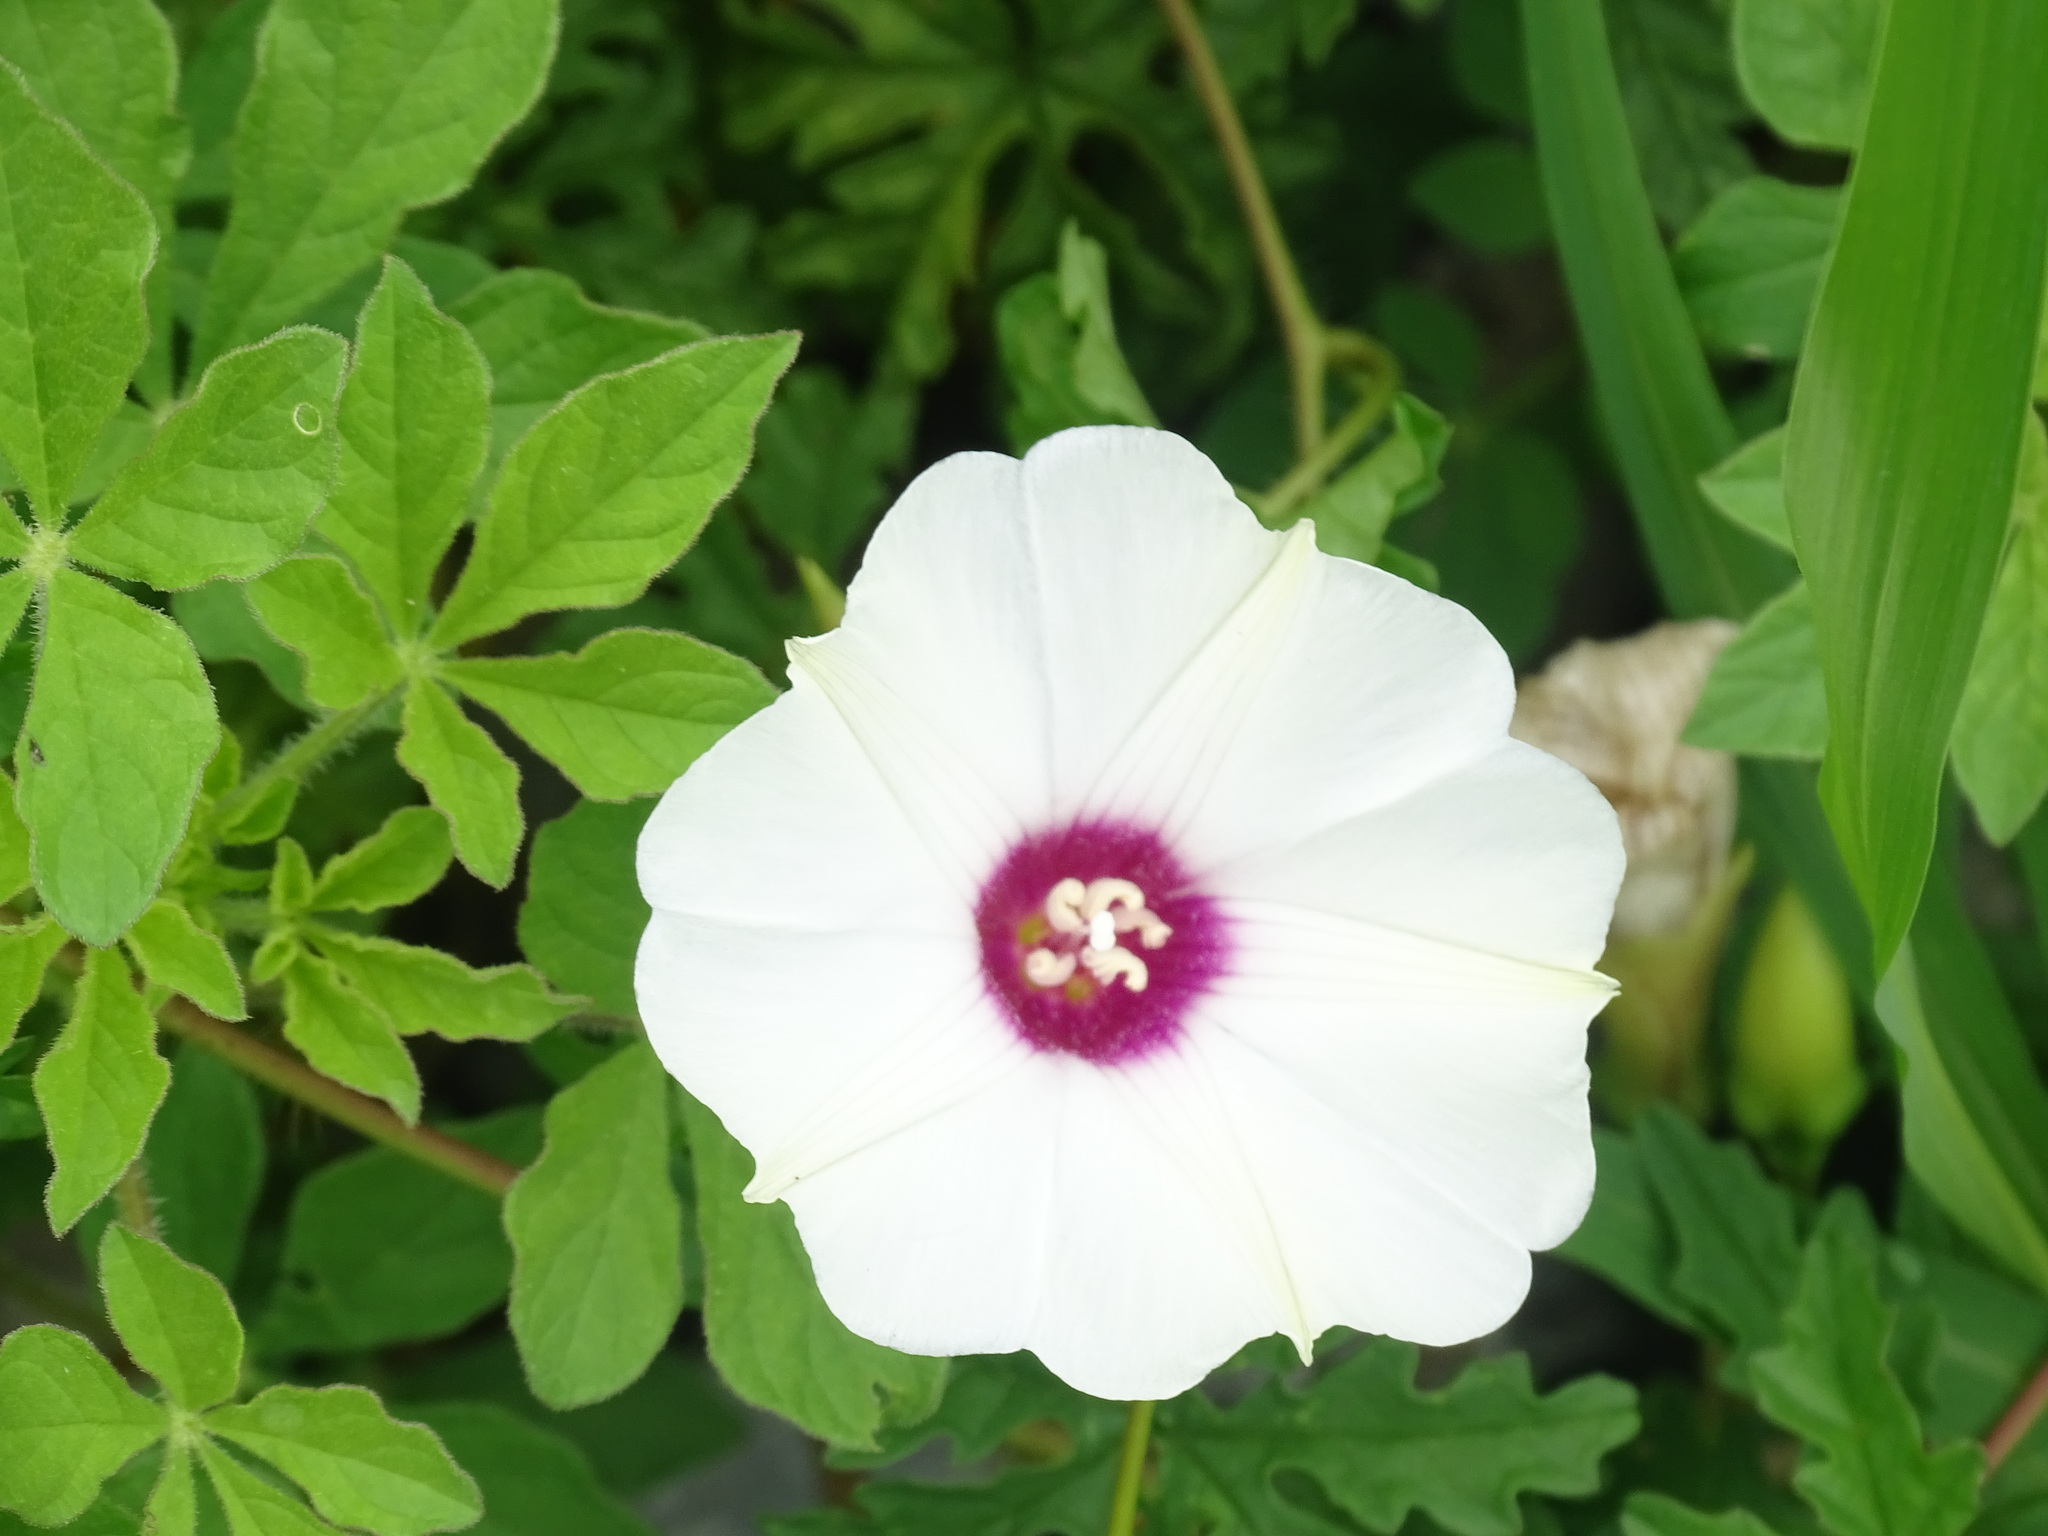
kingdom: Plantae
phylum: Tracheophyta
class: Magnoliopsida
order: Solanales
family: Convolvulaceae
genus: Distimake
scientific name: Distimake dissectus
